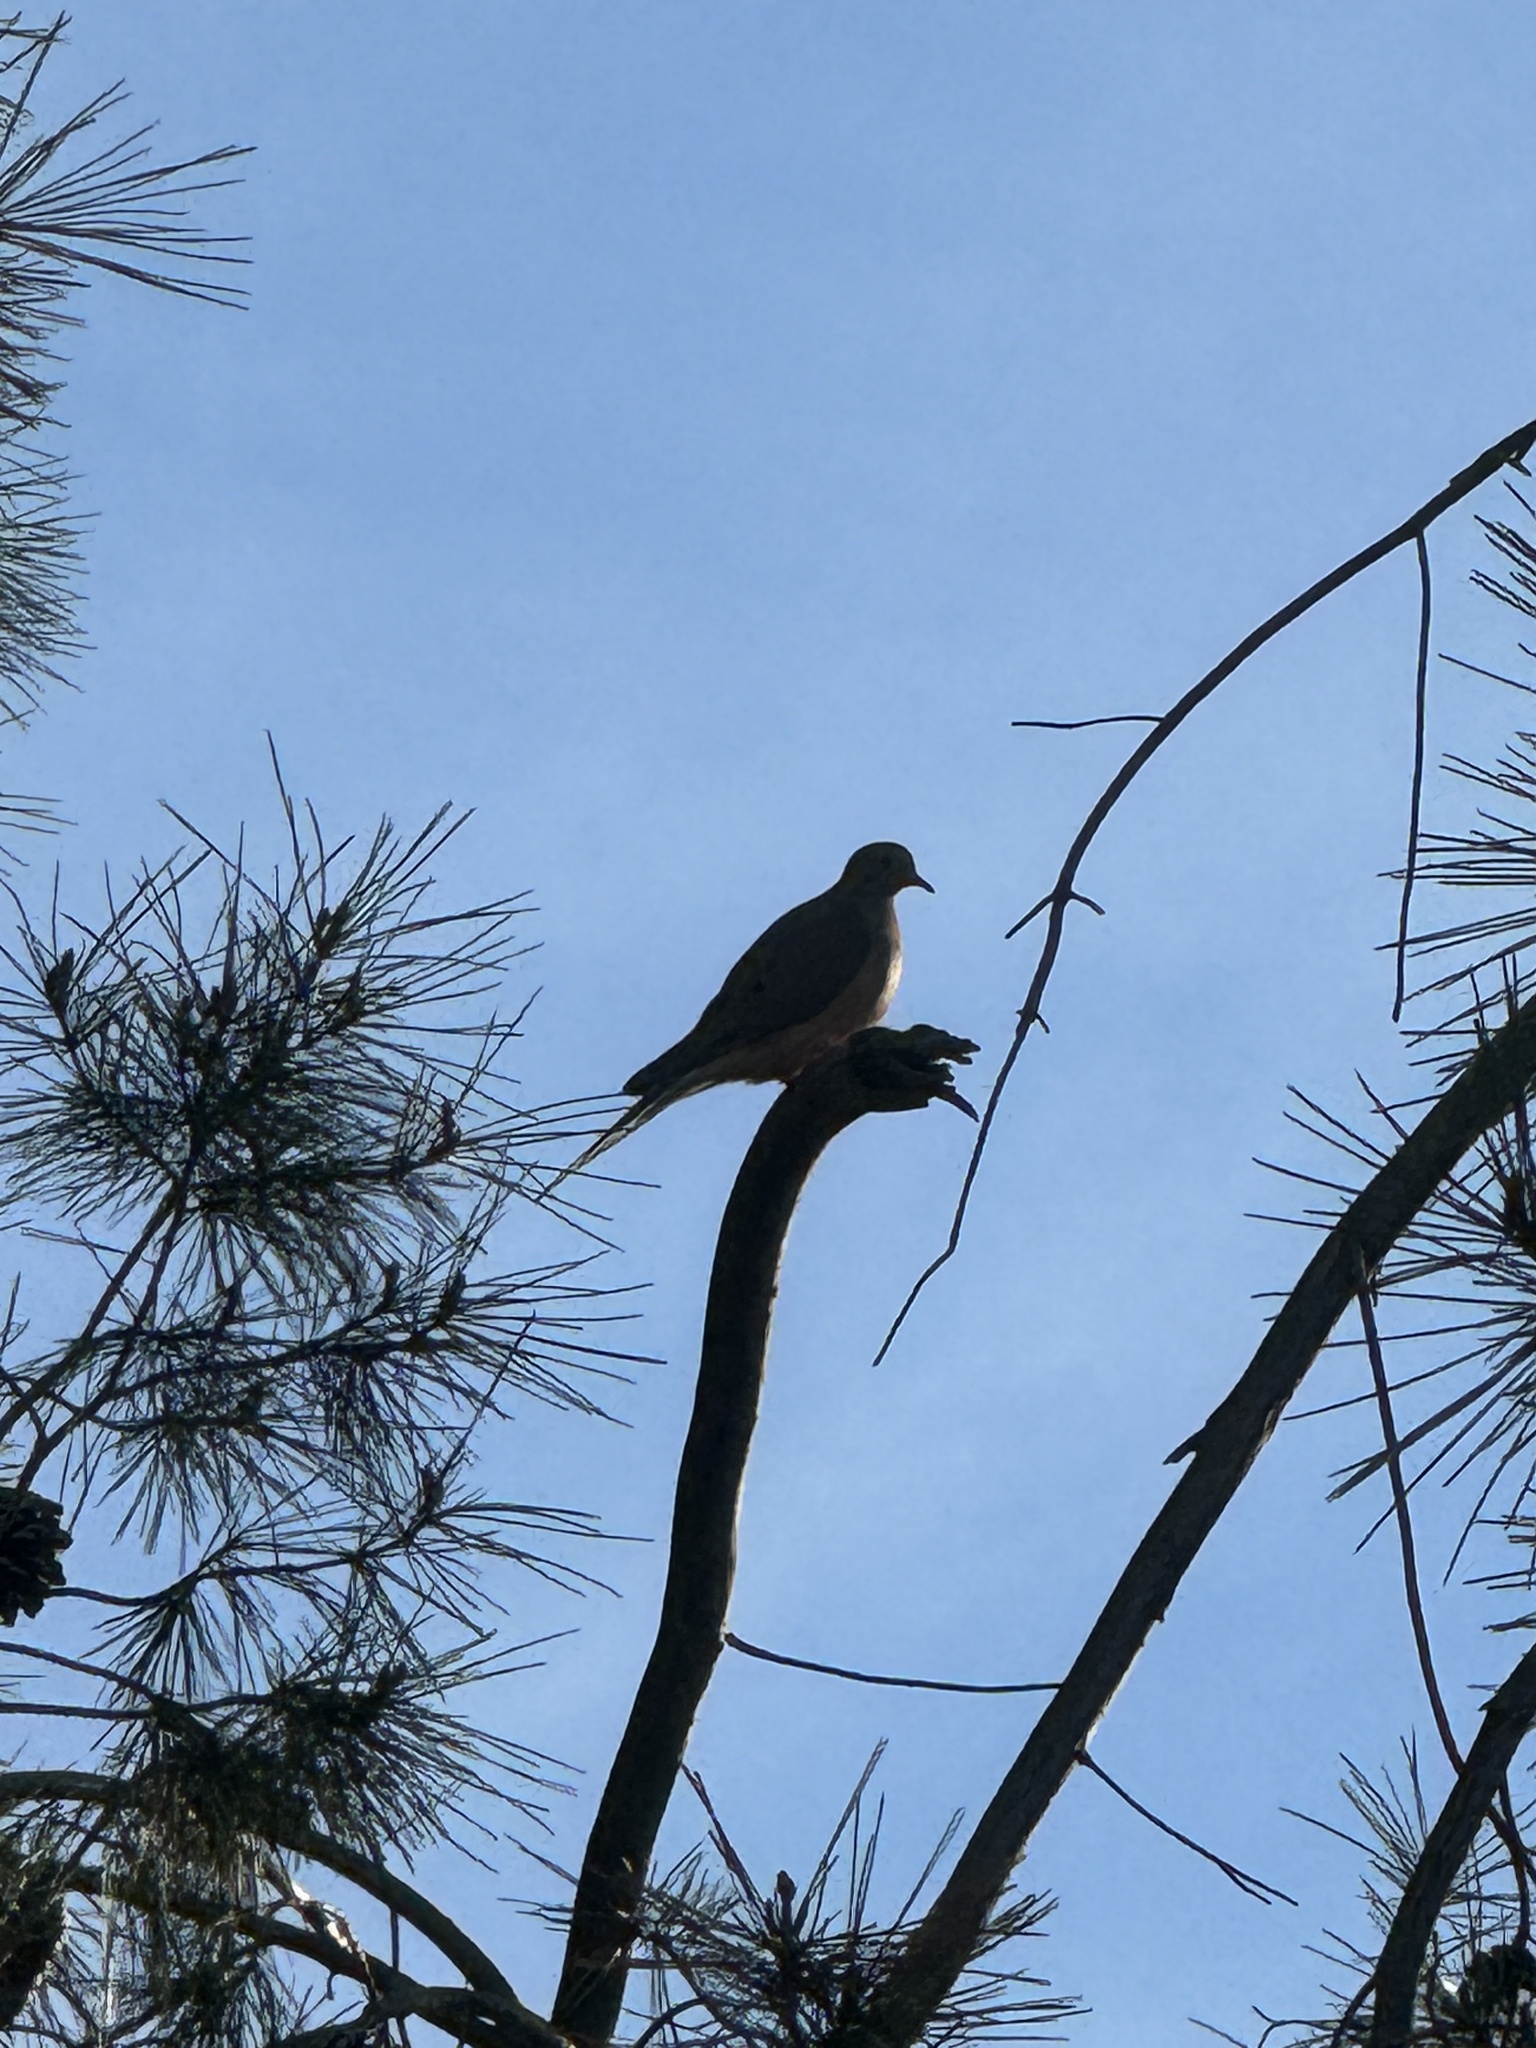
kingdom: Animalia
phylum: Chordata
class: Aves
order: Columbiformes
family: Columbidae
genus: Zenaida
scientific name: Zenaida macroura
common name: Mourning dove
